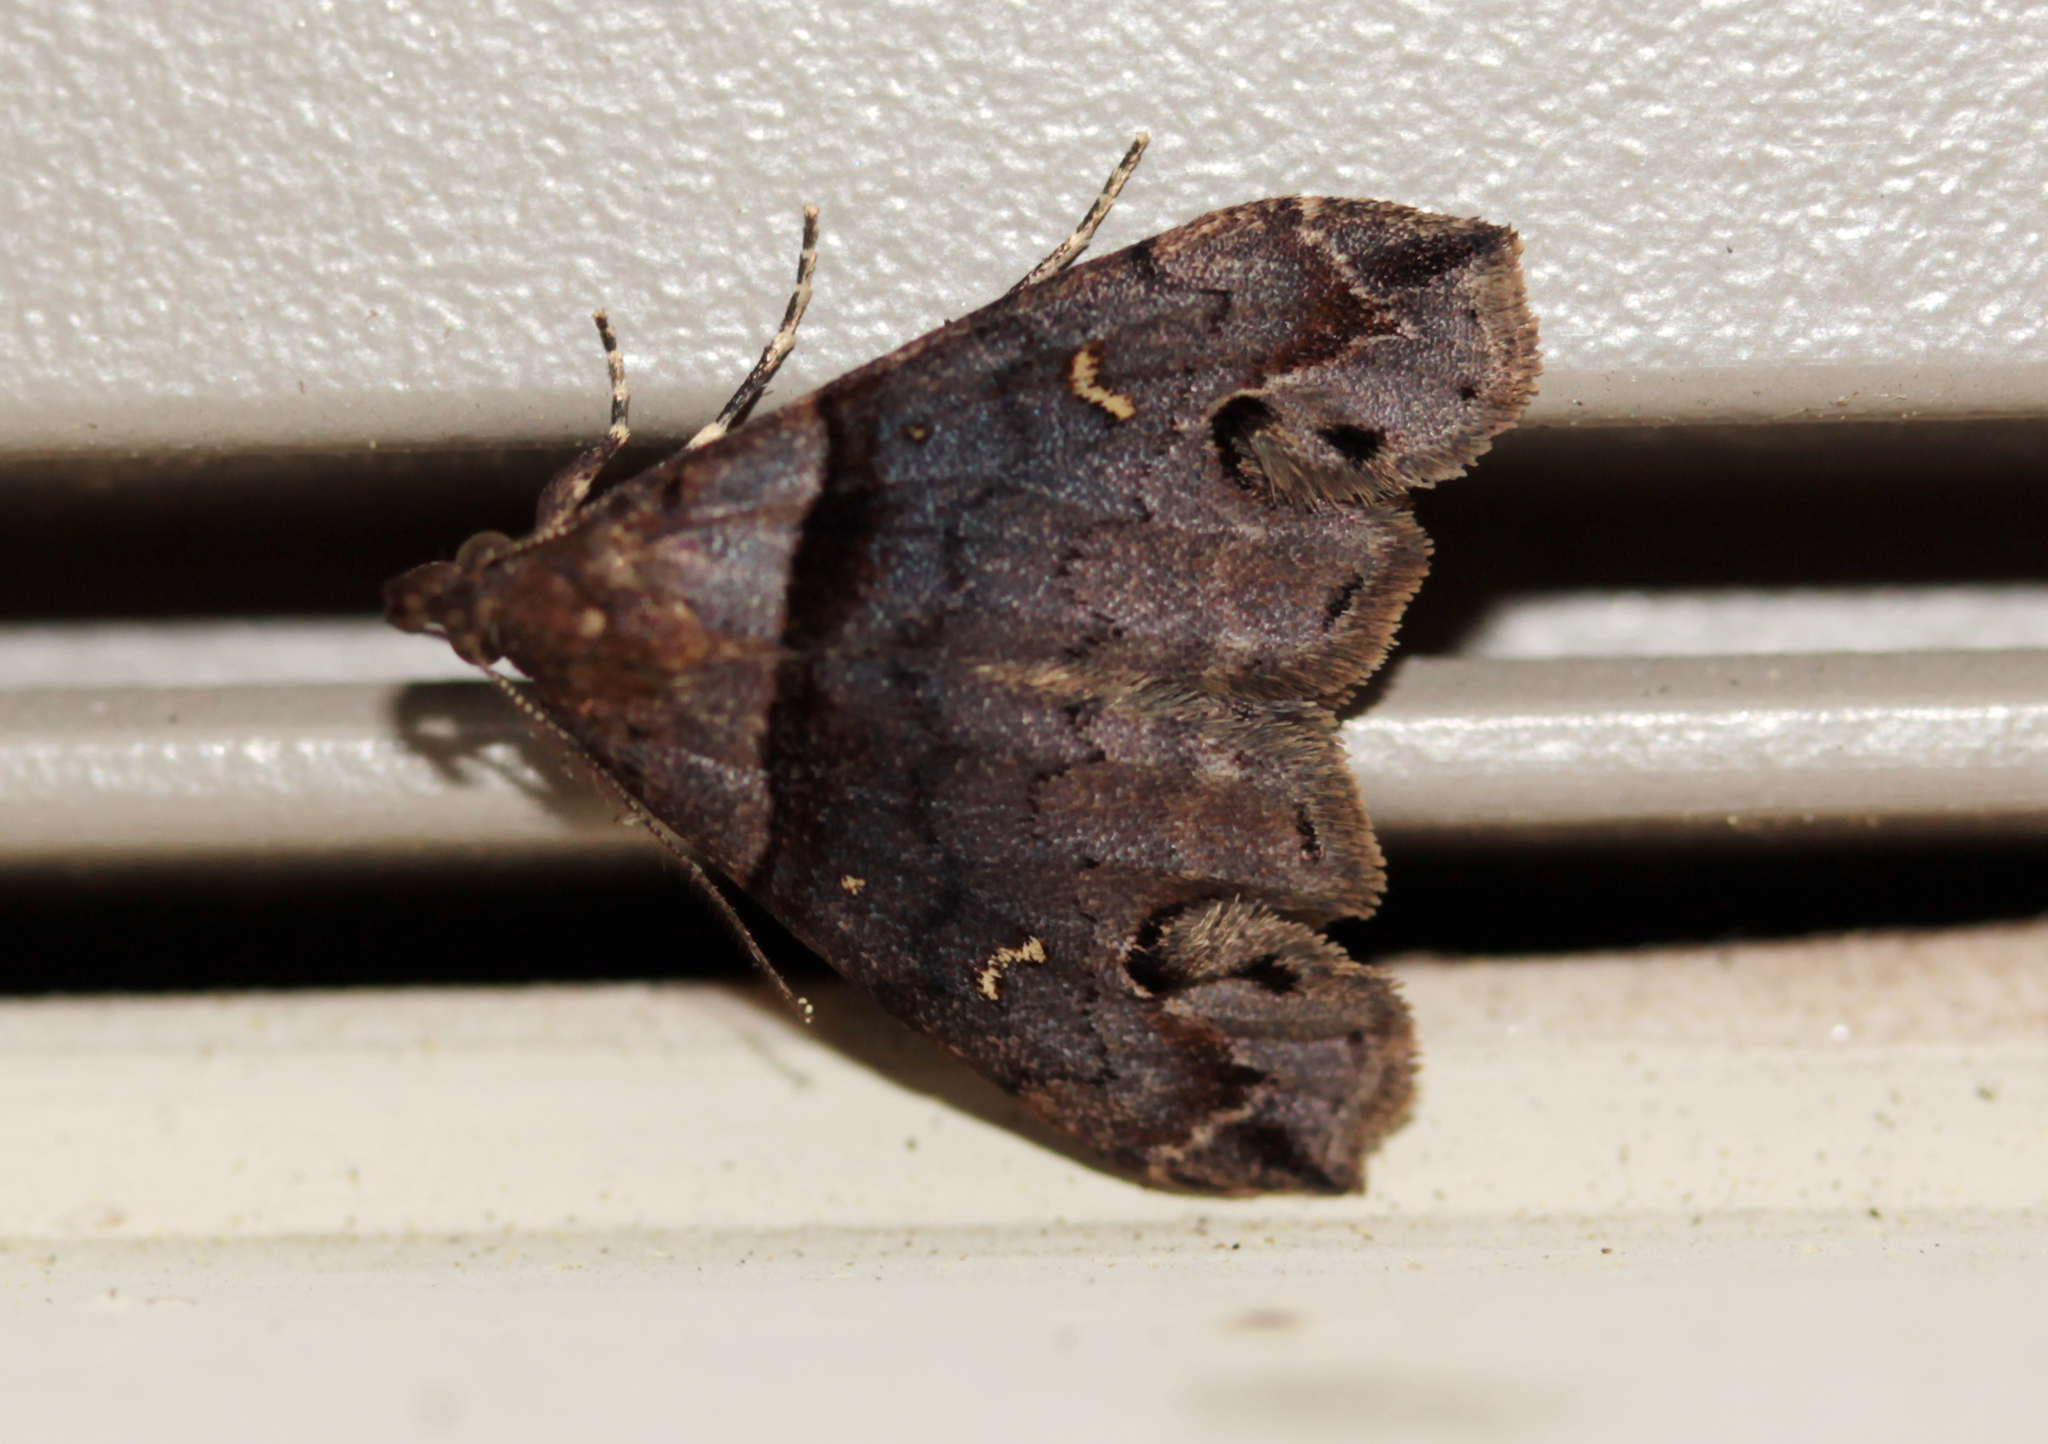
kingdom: Animalia
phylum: Arthropoda
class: Insecta
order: Lepidoptera
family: Erebidae
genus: Lascoria
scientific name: Lascoria ambigualis
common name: Ambiguous moth
